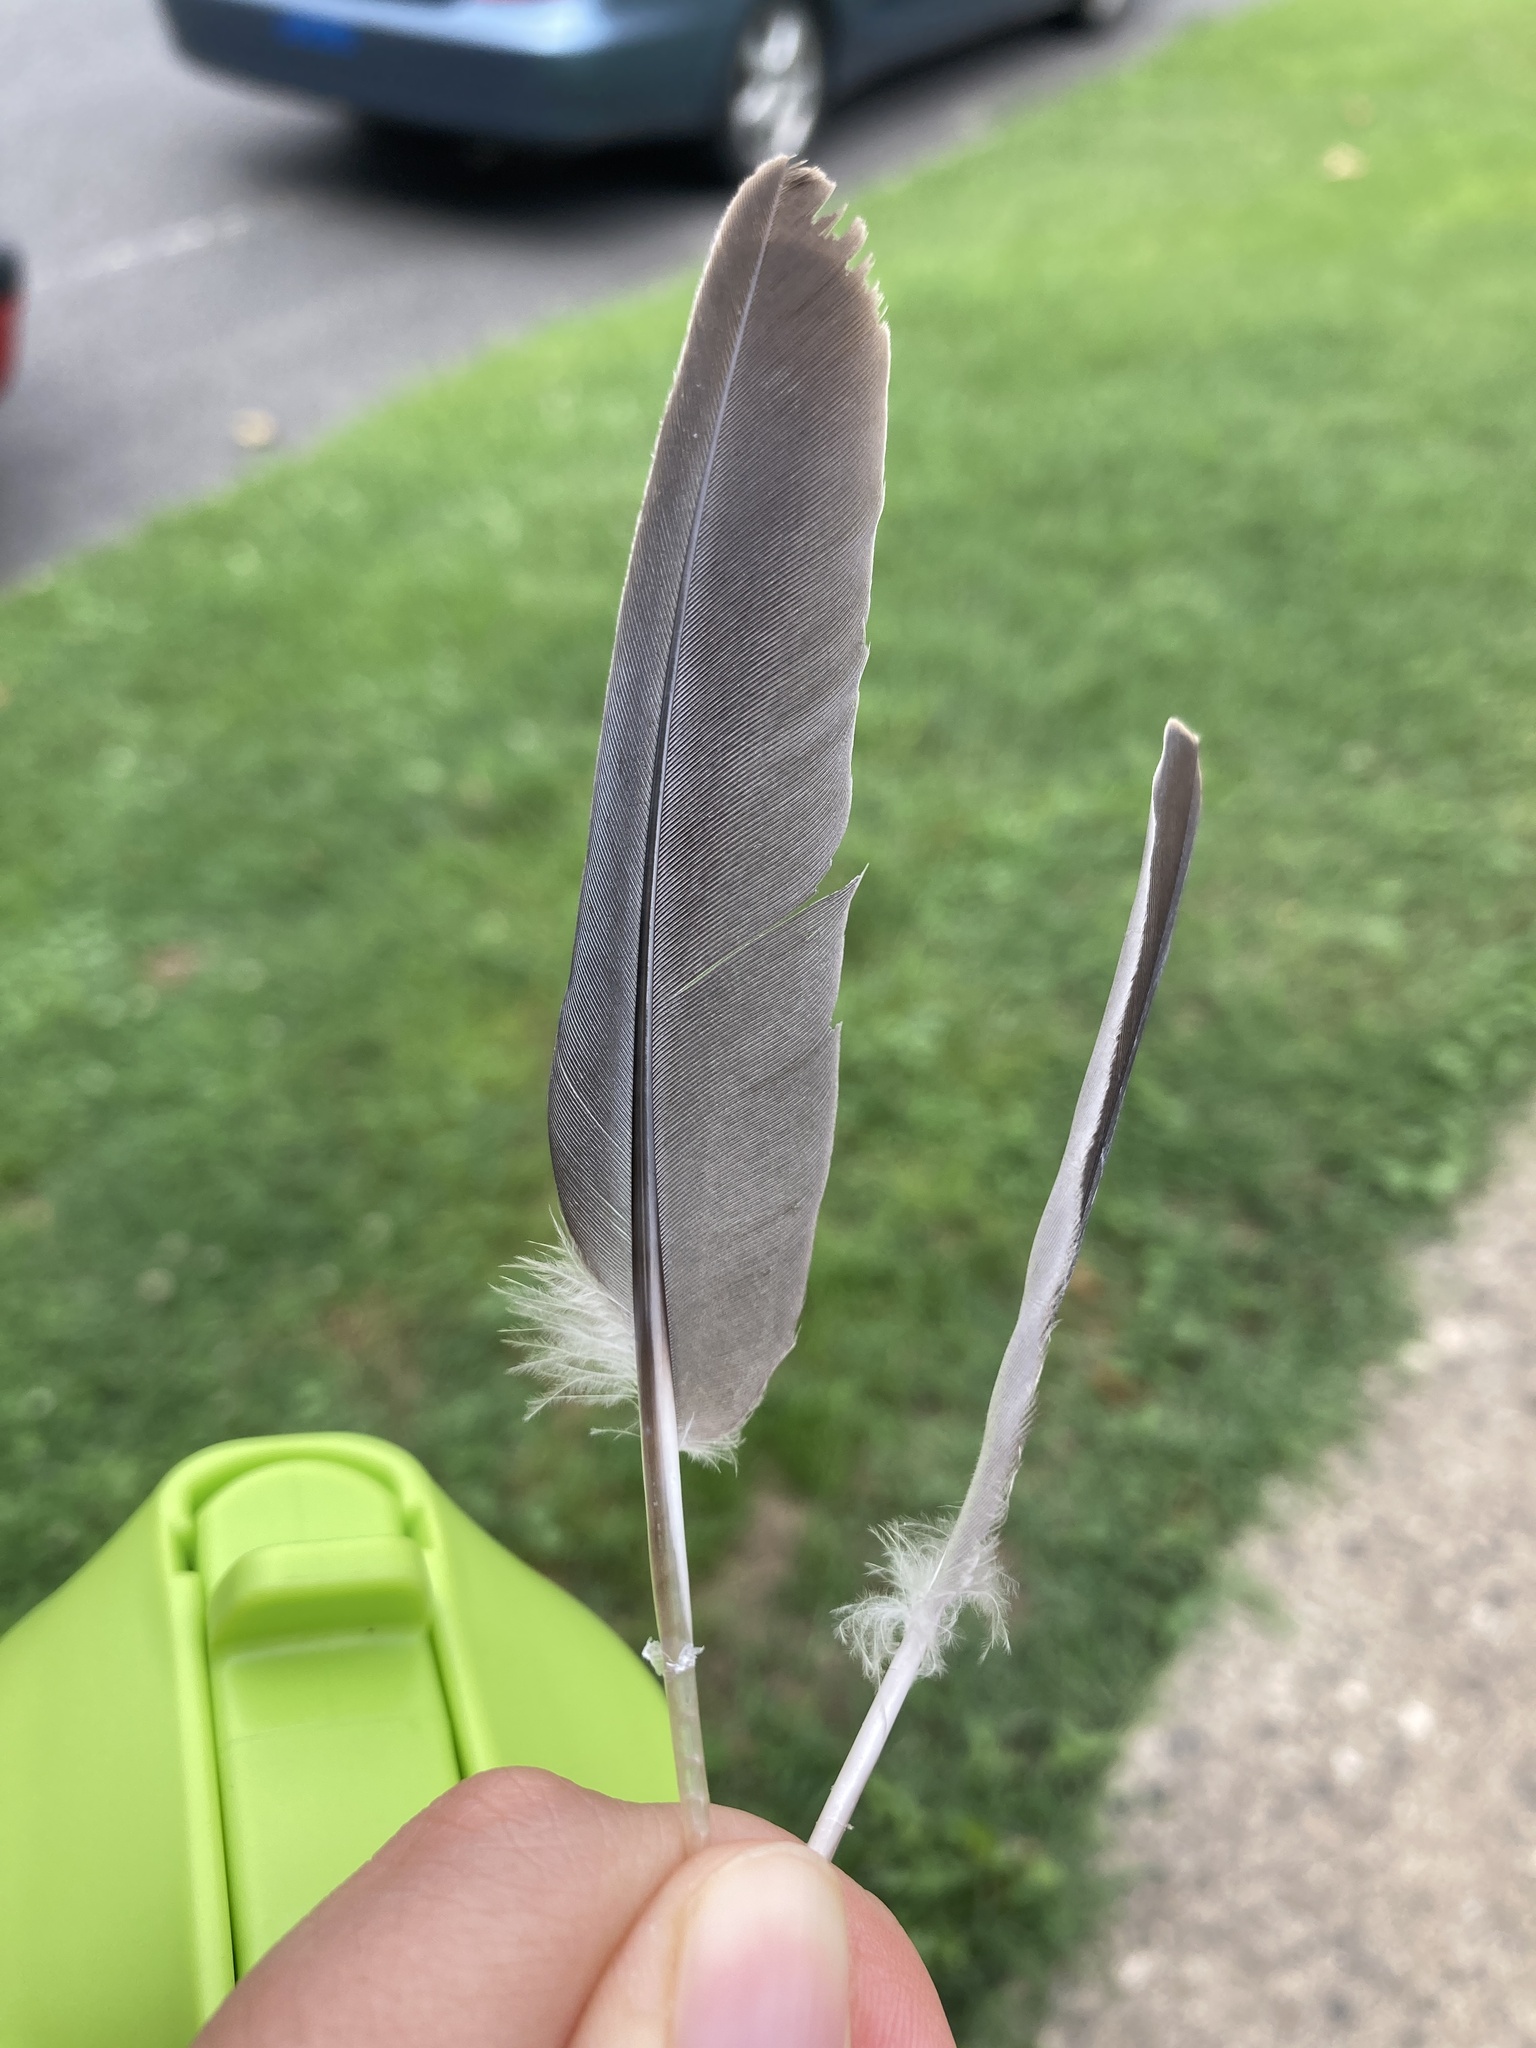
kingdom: Animalia
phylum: Chordata
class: Aves
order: Columbiformes
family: Columbidae
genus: Zenaida
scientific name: Zenaida macroura
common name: Mourning dove
